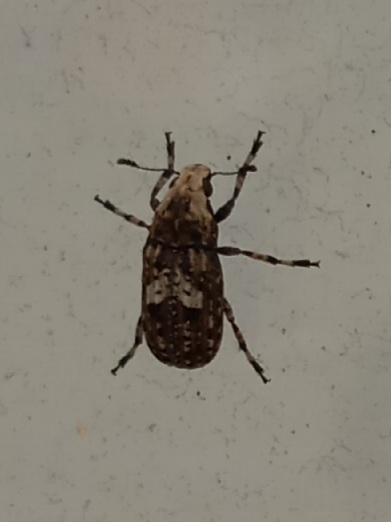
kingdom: Animalia
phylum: Arthropoda
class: Insecta
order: Coleoptera
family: Anthribidae
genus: Euparius
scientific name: Euparius marmoreus
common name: Marbled fungus weevil
